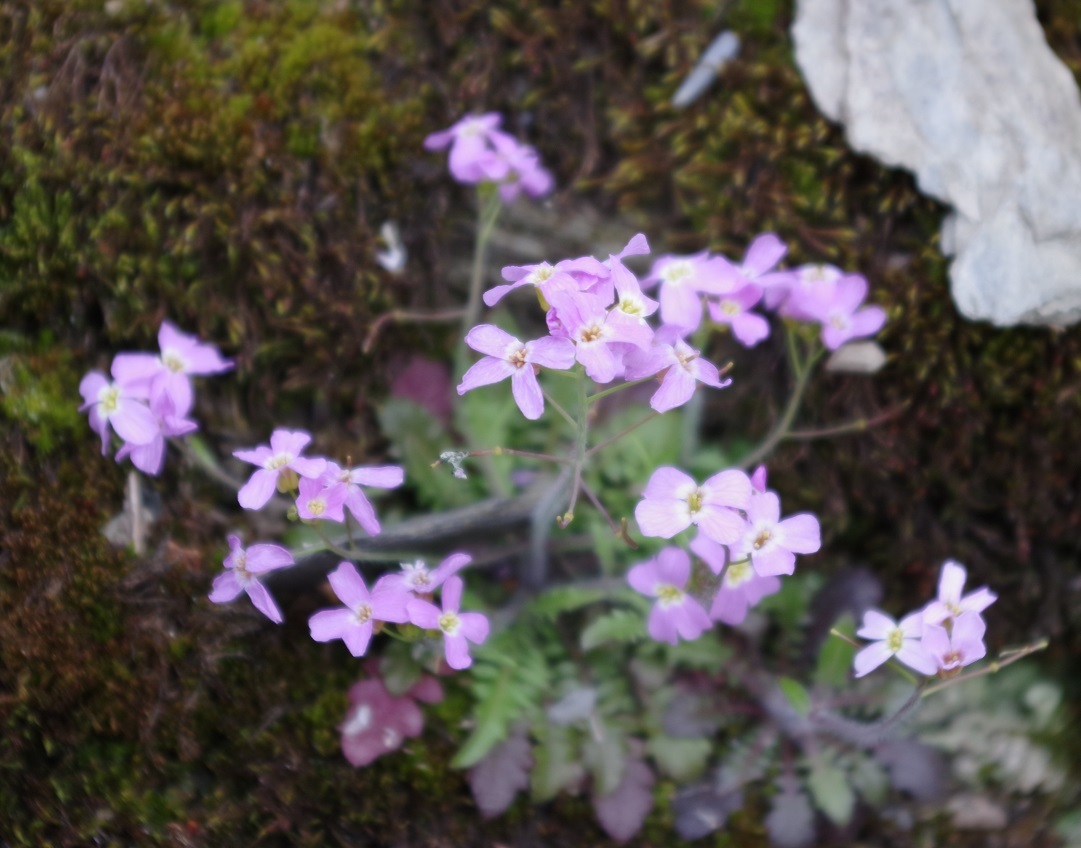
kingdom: Plantae
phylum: Tracheophyta
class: Magnoliopsida
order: Brassicales
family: Brassicaceae
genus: Arabidopsis
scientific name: Arabidopsis arenosa
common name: Sand rock-cress
